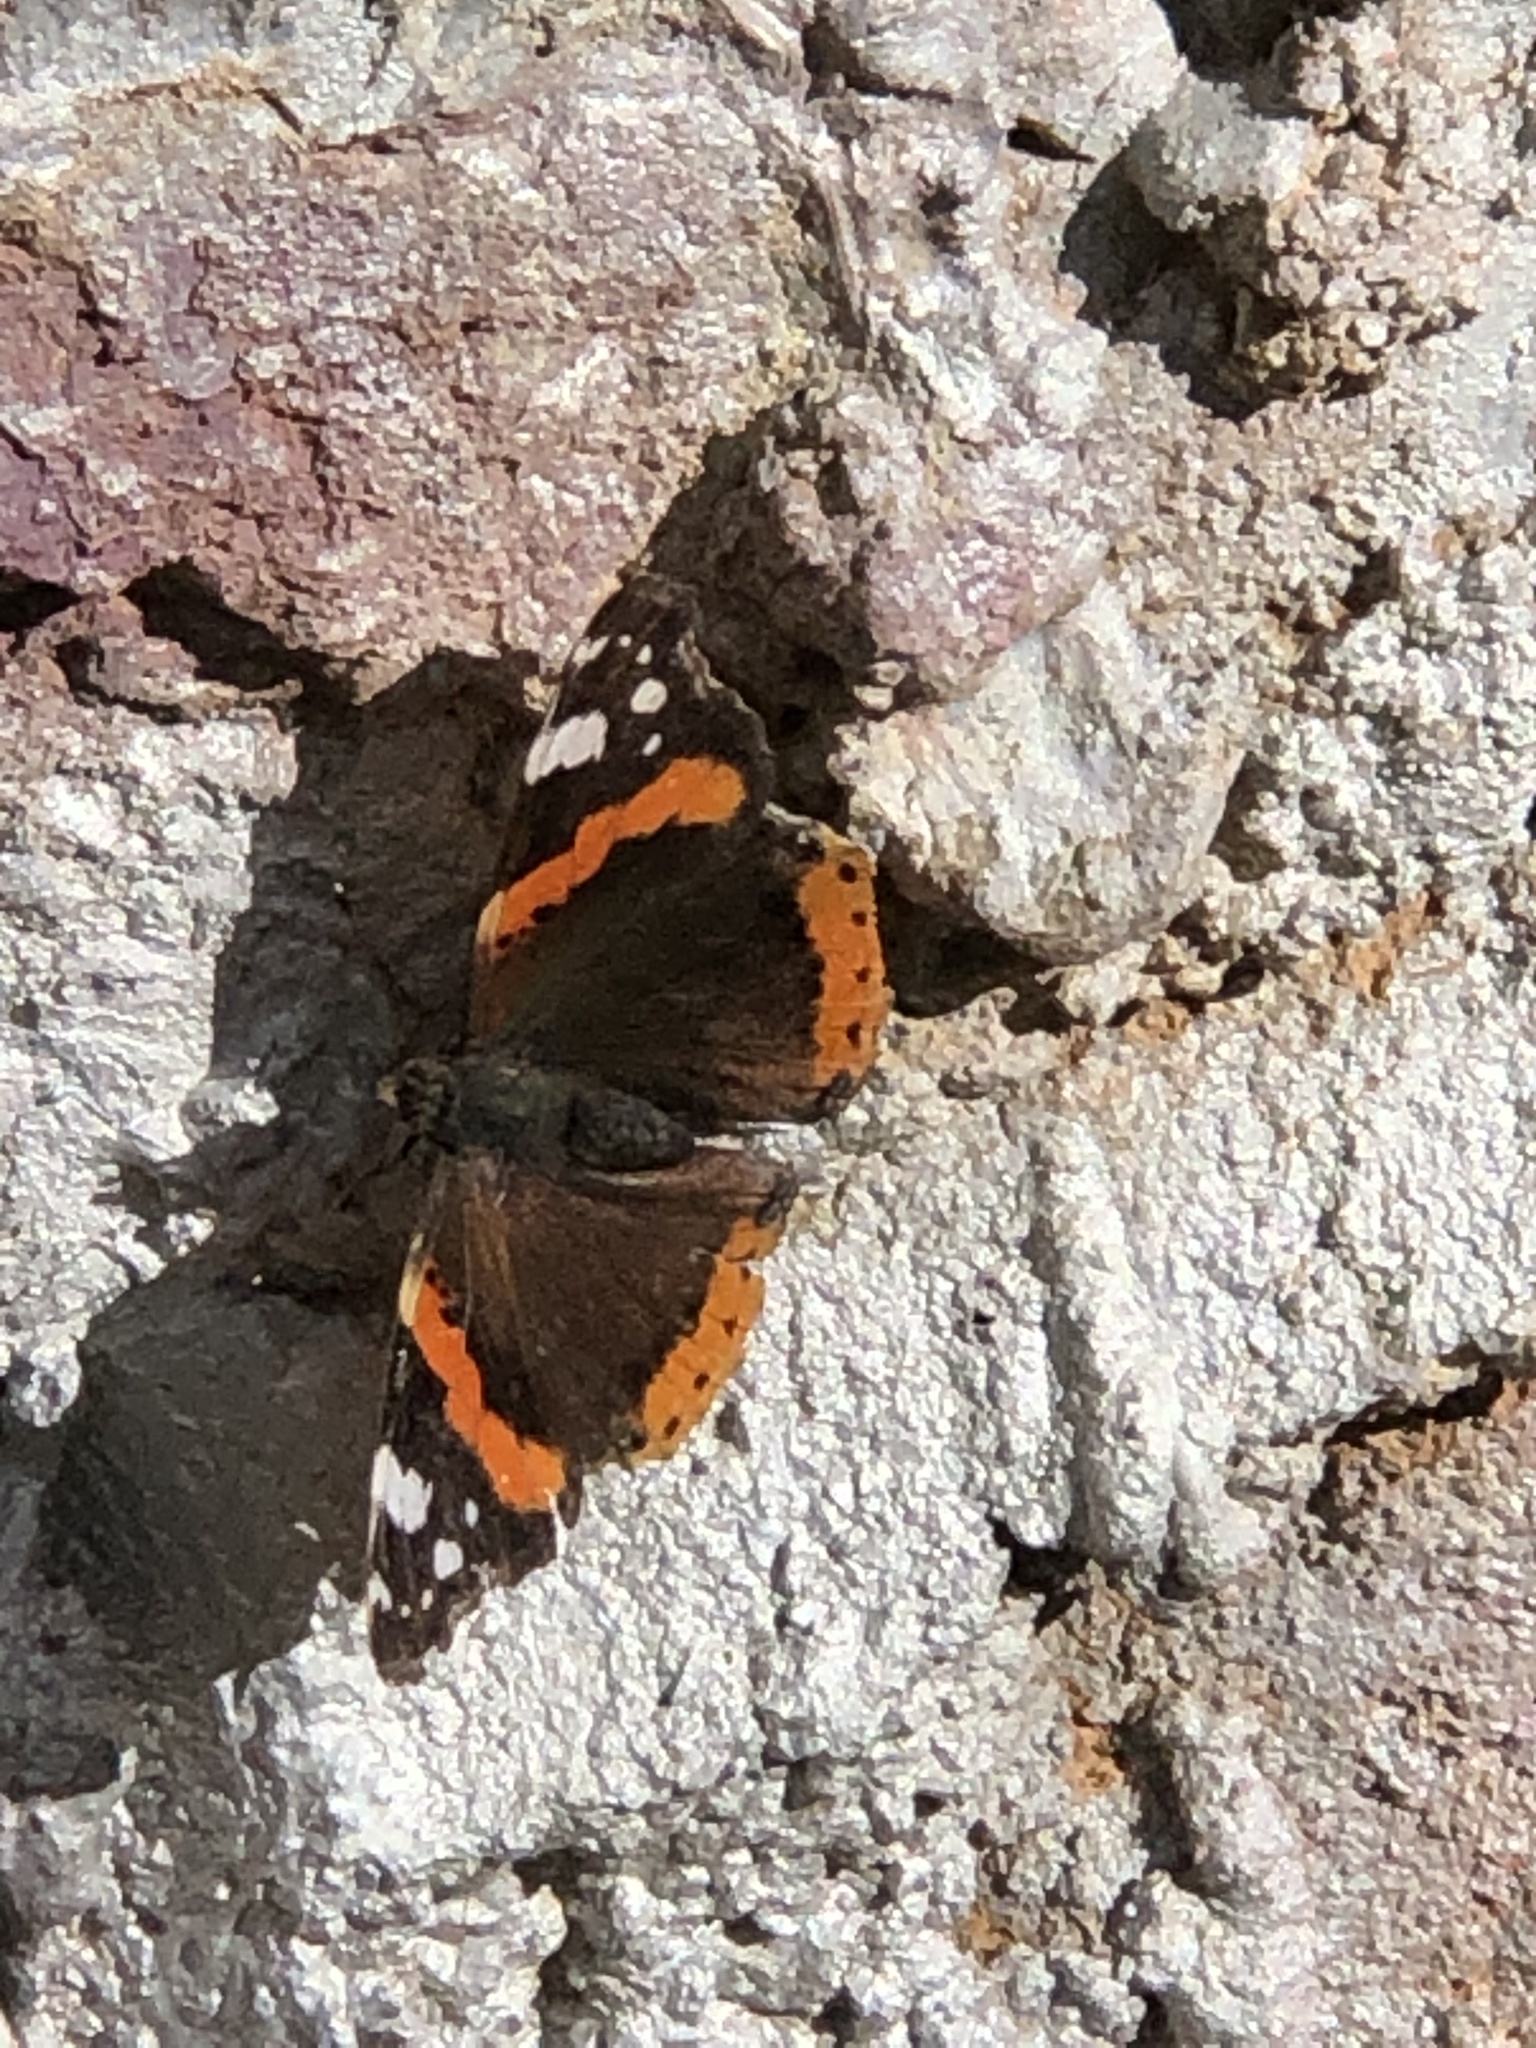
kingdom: Animalia
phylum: Arthropoda
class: Insecta
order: Lepidoptera
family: Nymphalidae
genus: Vanessa
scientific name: Vanessa atalanta
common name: Red admiral
